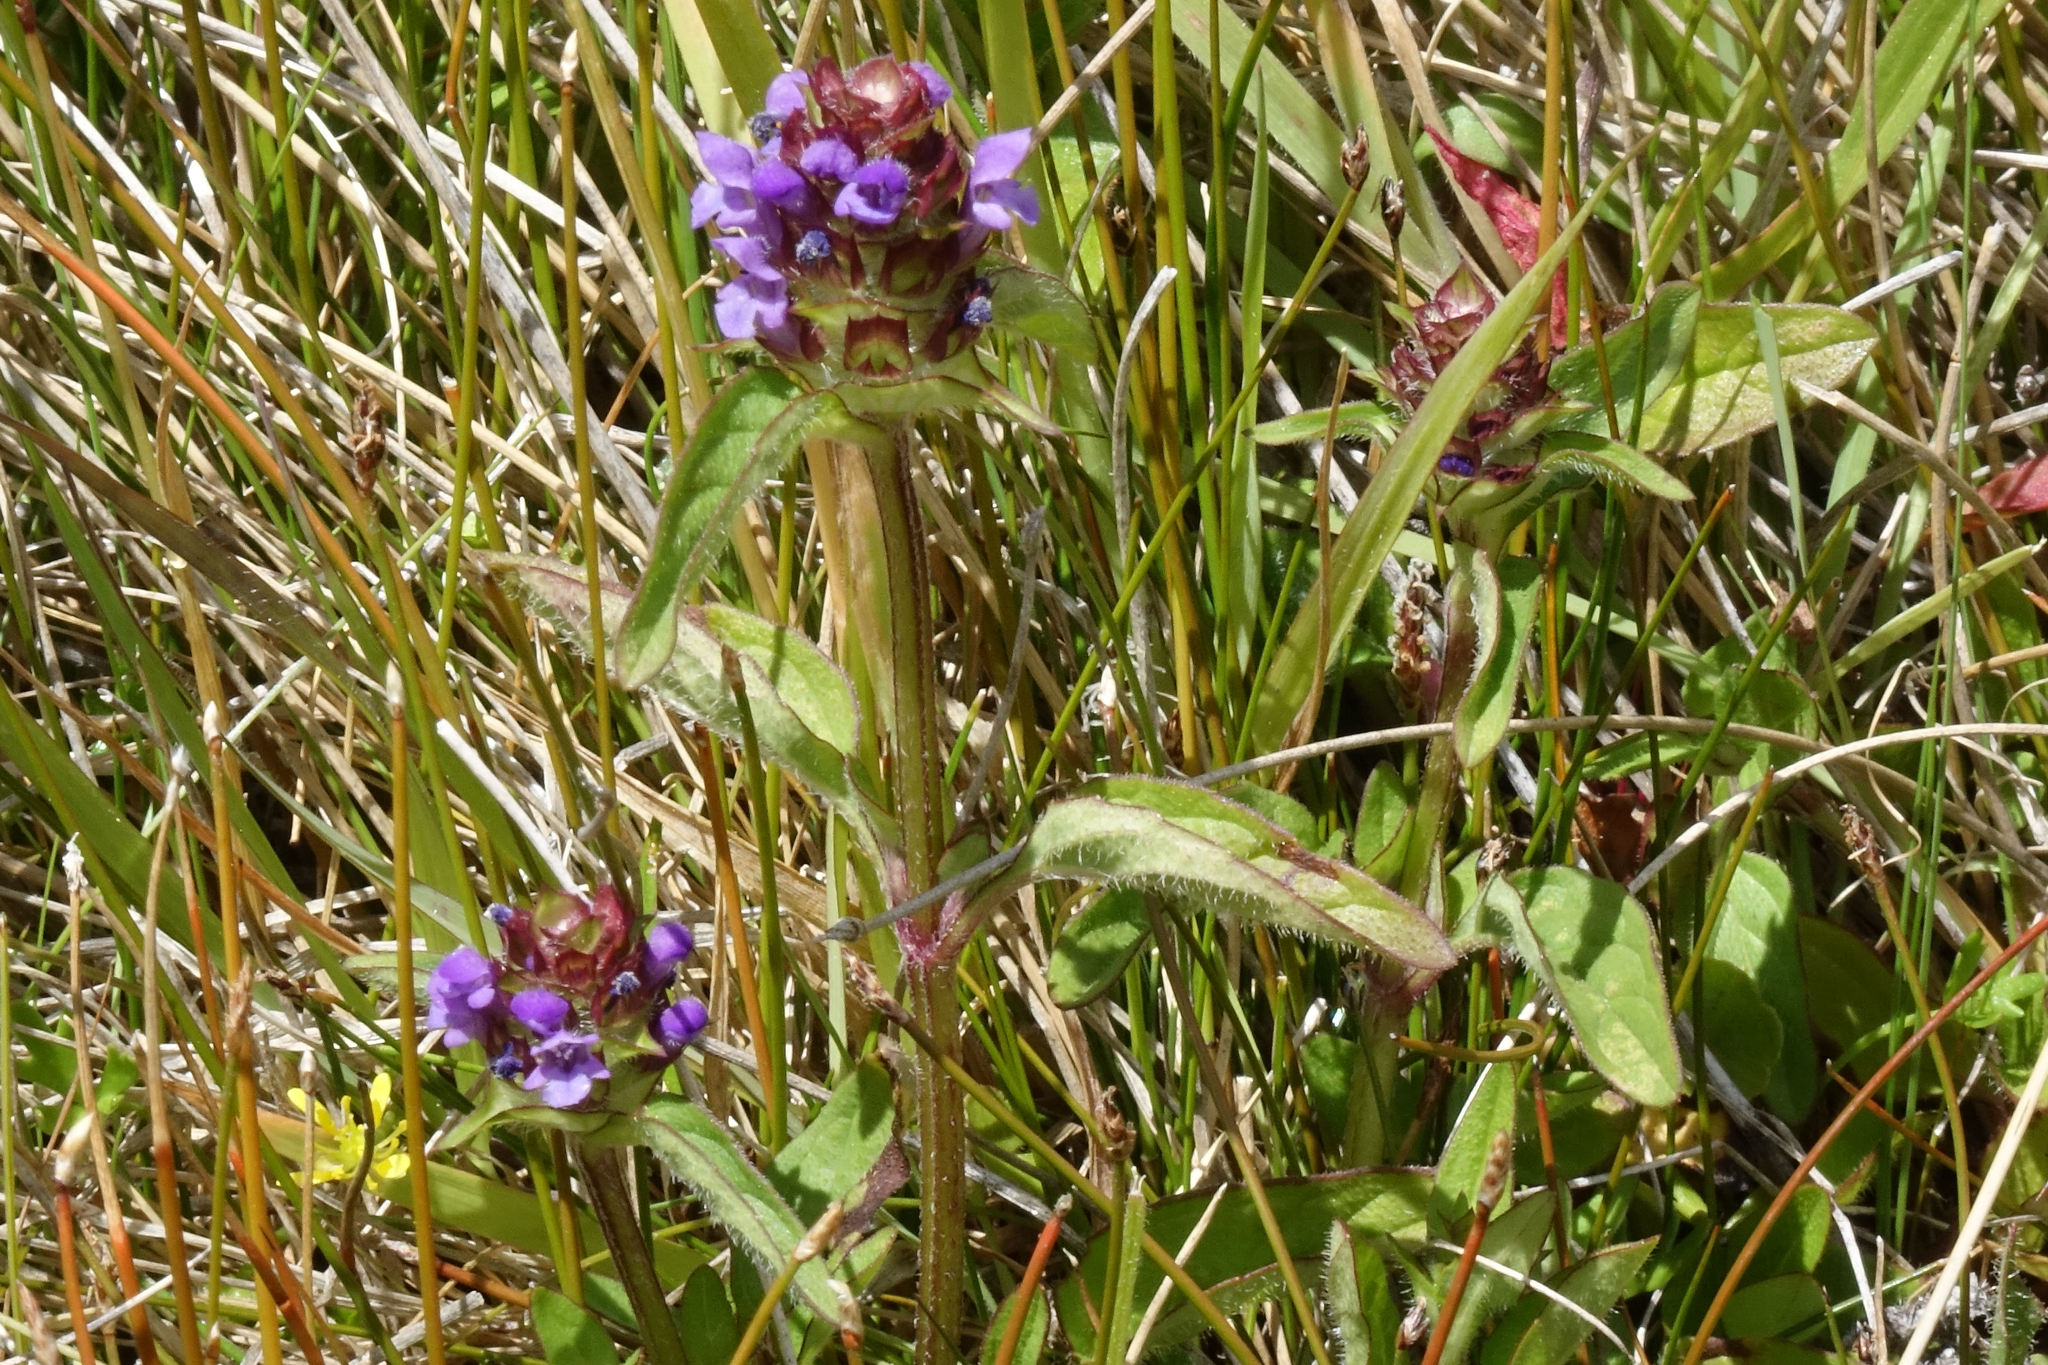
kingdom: Plantae
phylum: Tracheophyta
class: Magnoliopsida
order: Lamiales
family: Lamiaceae
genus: Prunella
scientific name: Prunella vulgaris
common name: Heal-all
